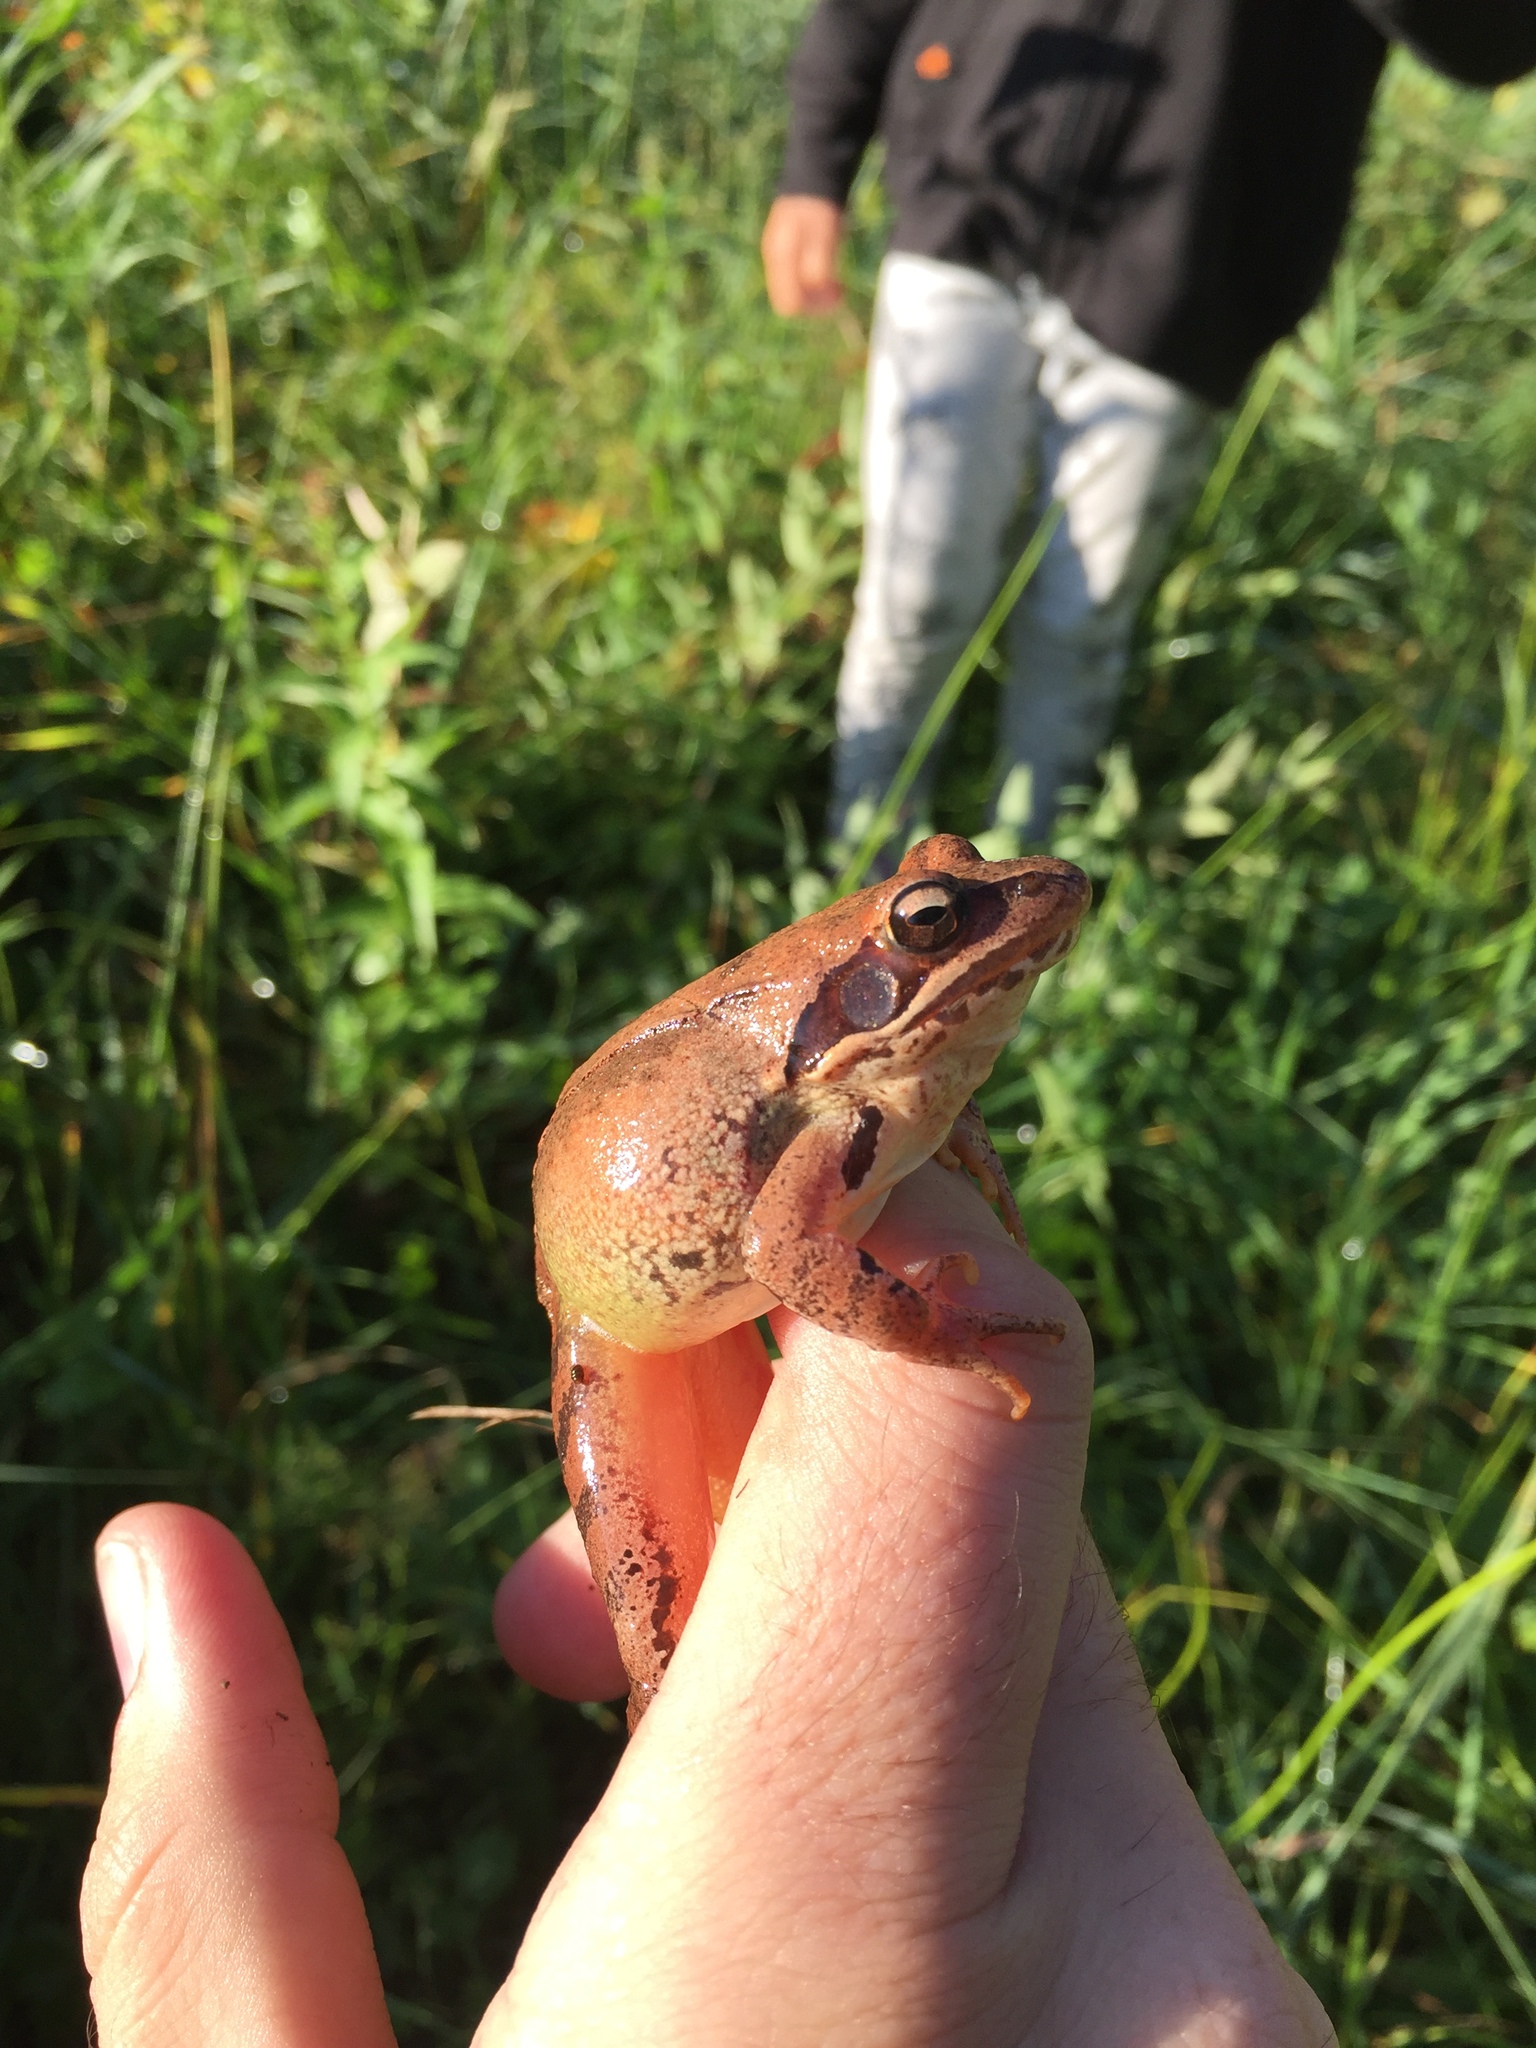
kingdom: Animalia
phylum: Chordata
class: Amphibia
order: Anura
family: Ranidae
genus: Rana
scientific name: Rana dalmatina
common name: Agile frog
